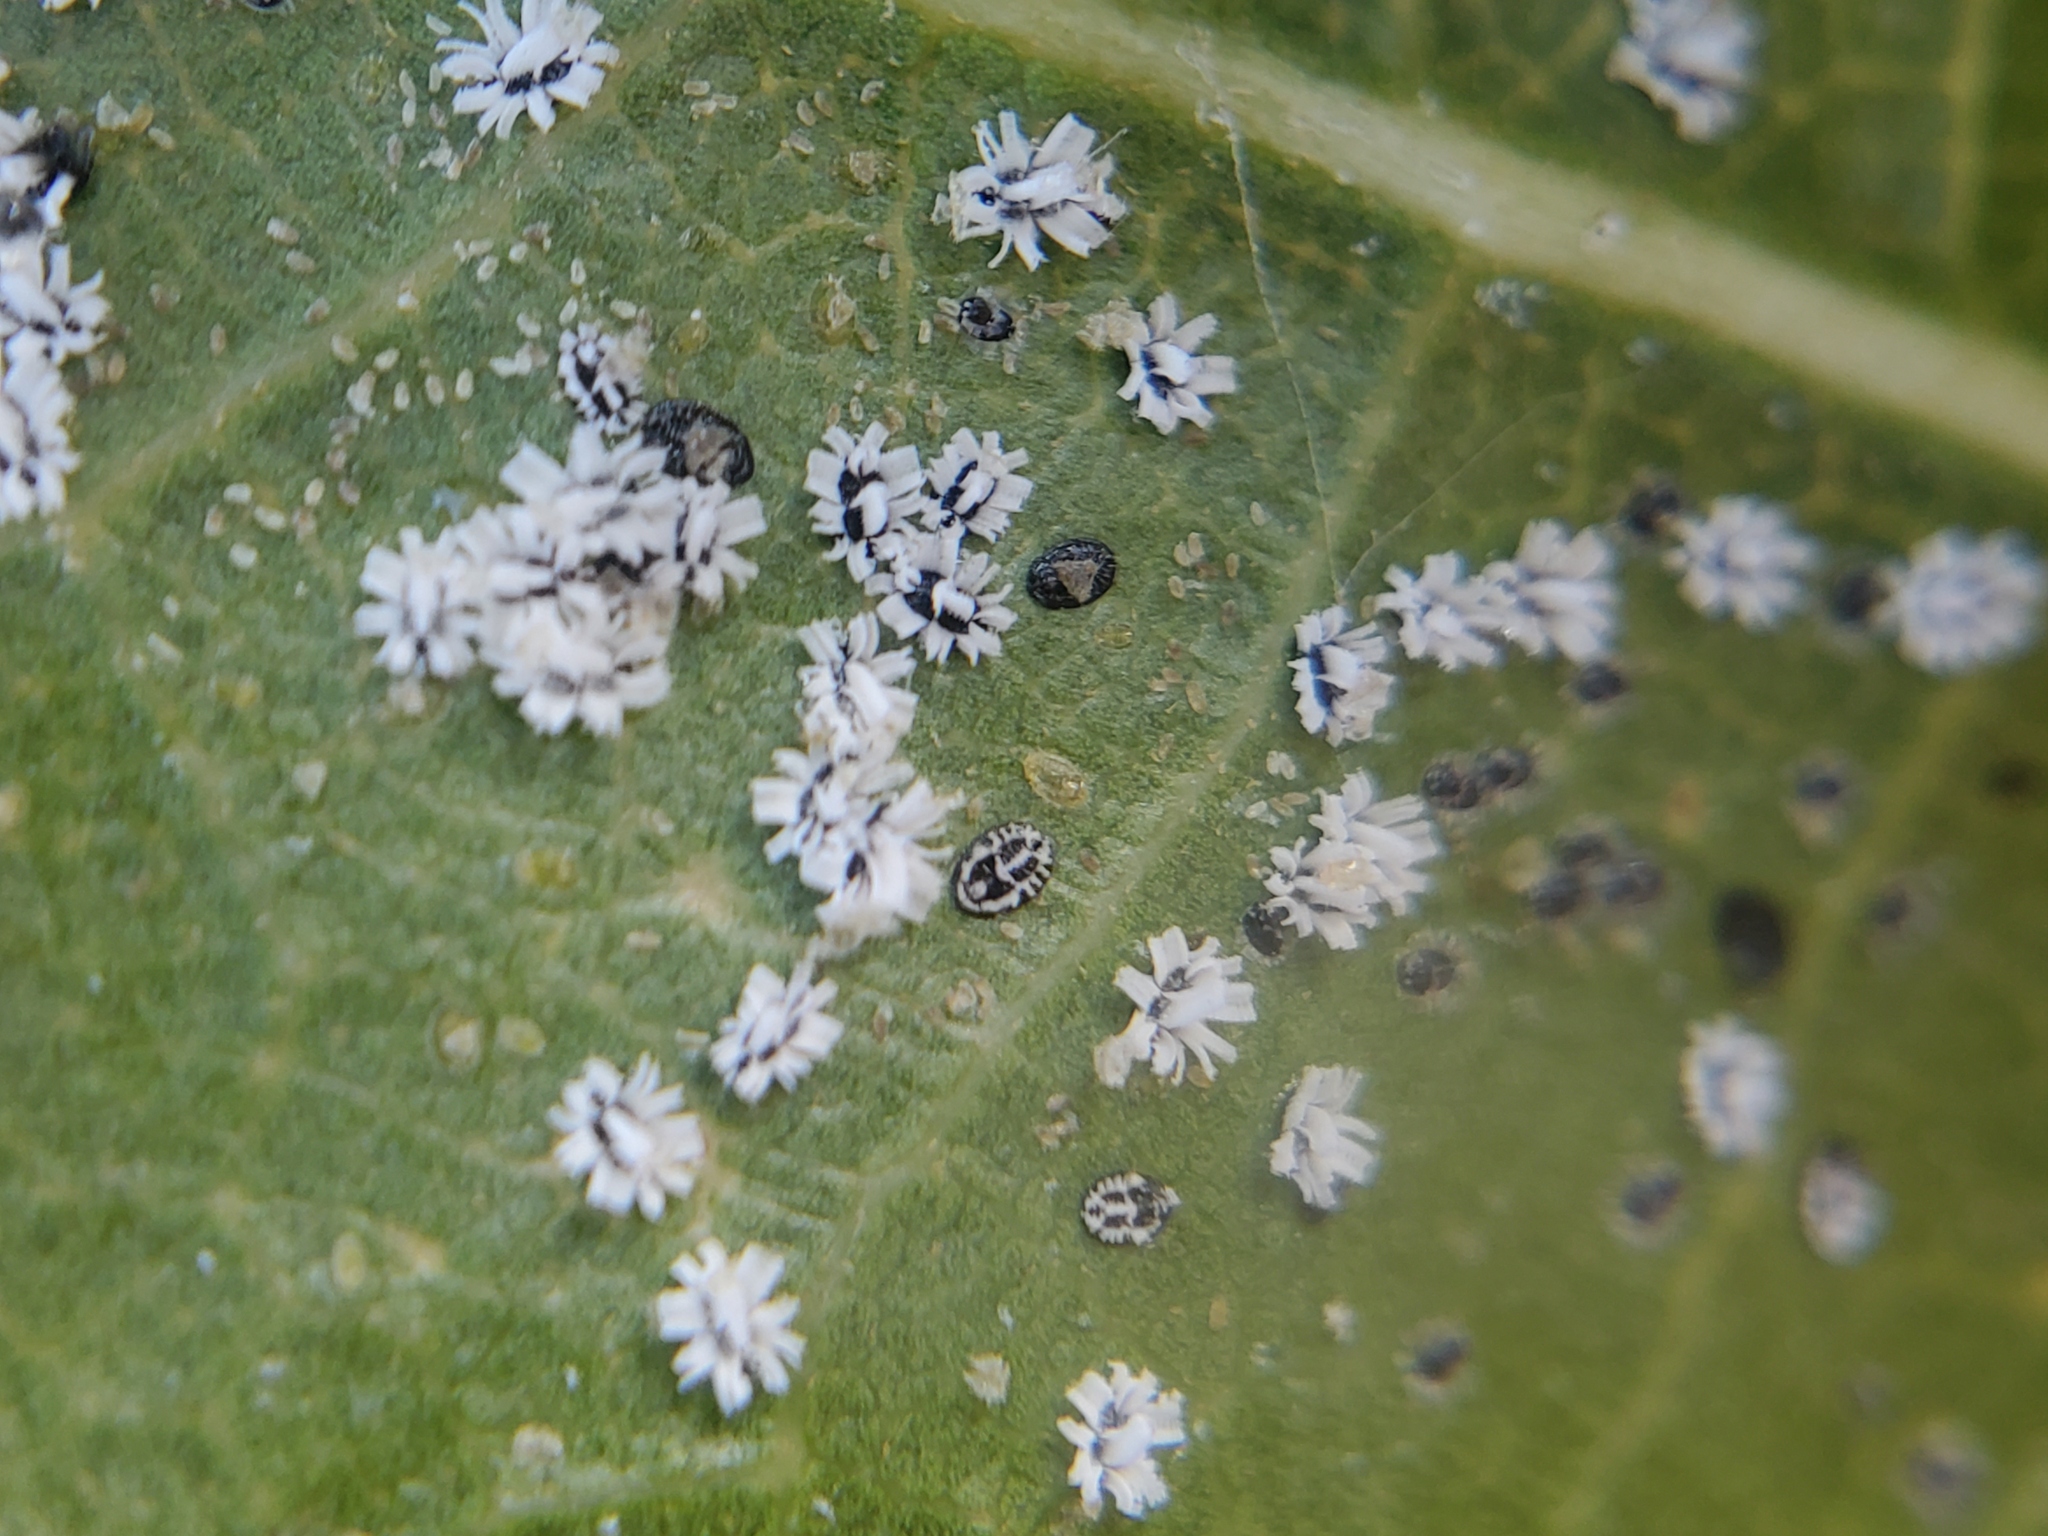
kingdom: Animalia
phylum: Arthropoda
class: Insecta
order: Hemiptera
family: Aleyrodidae
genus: Aleuroplatus
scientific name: Aleuroplatus coronata
